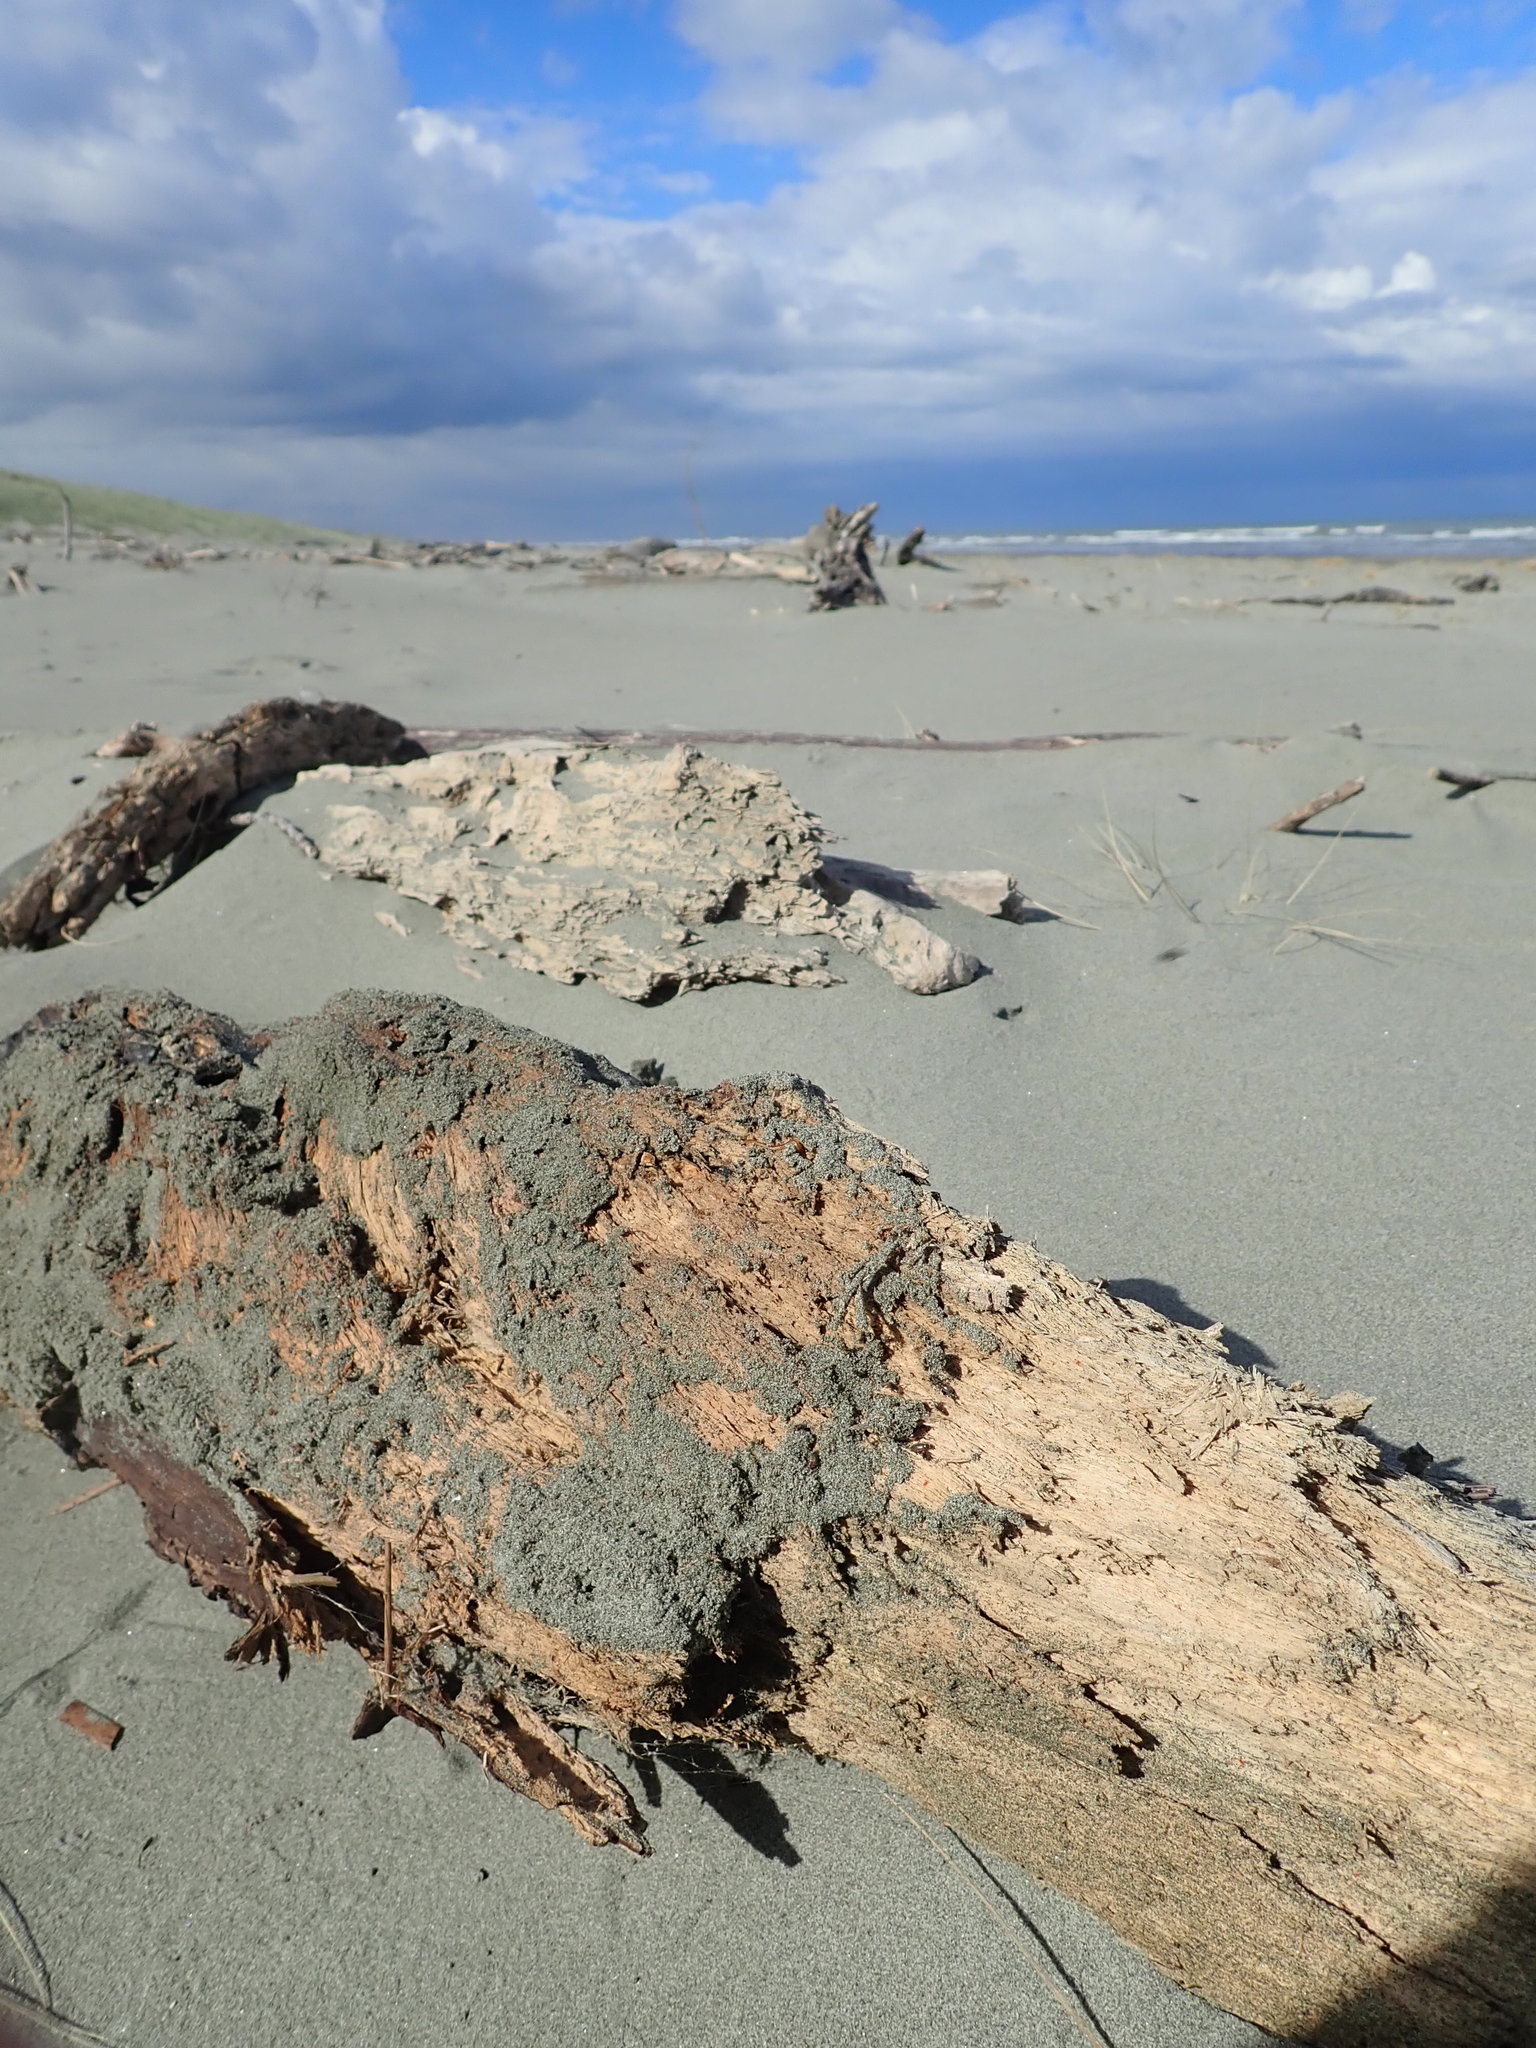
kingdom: Animalia
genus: Lagrioda
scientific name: Lagrioda brounii
